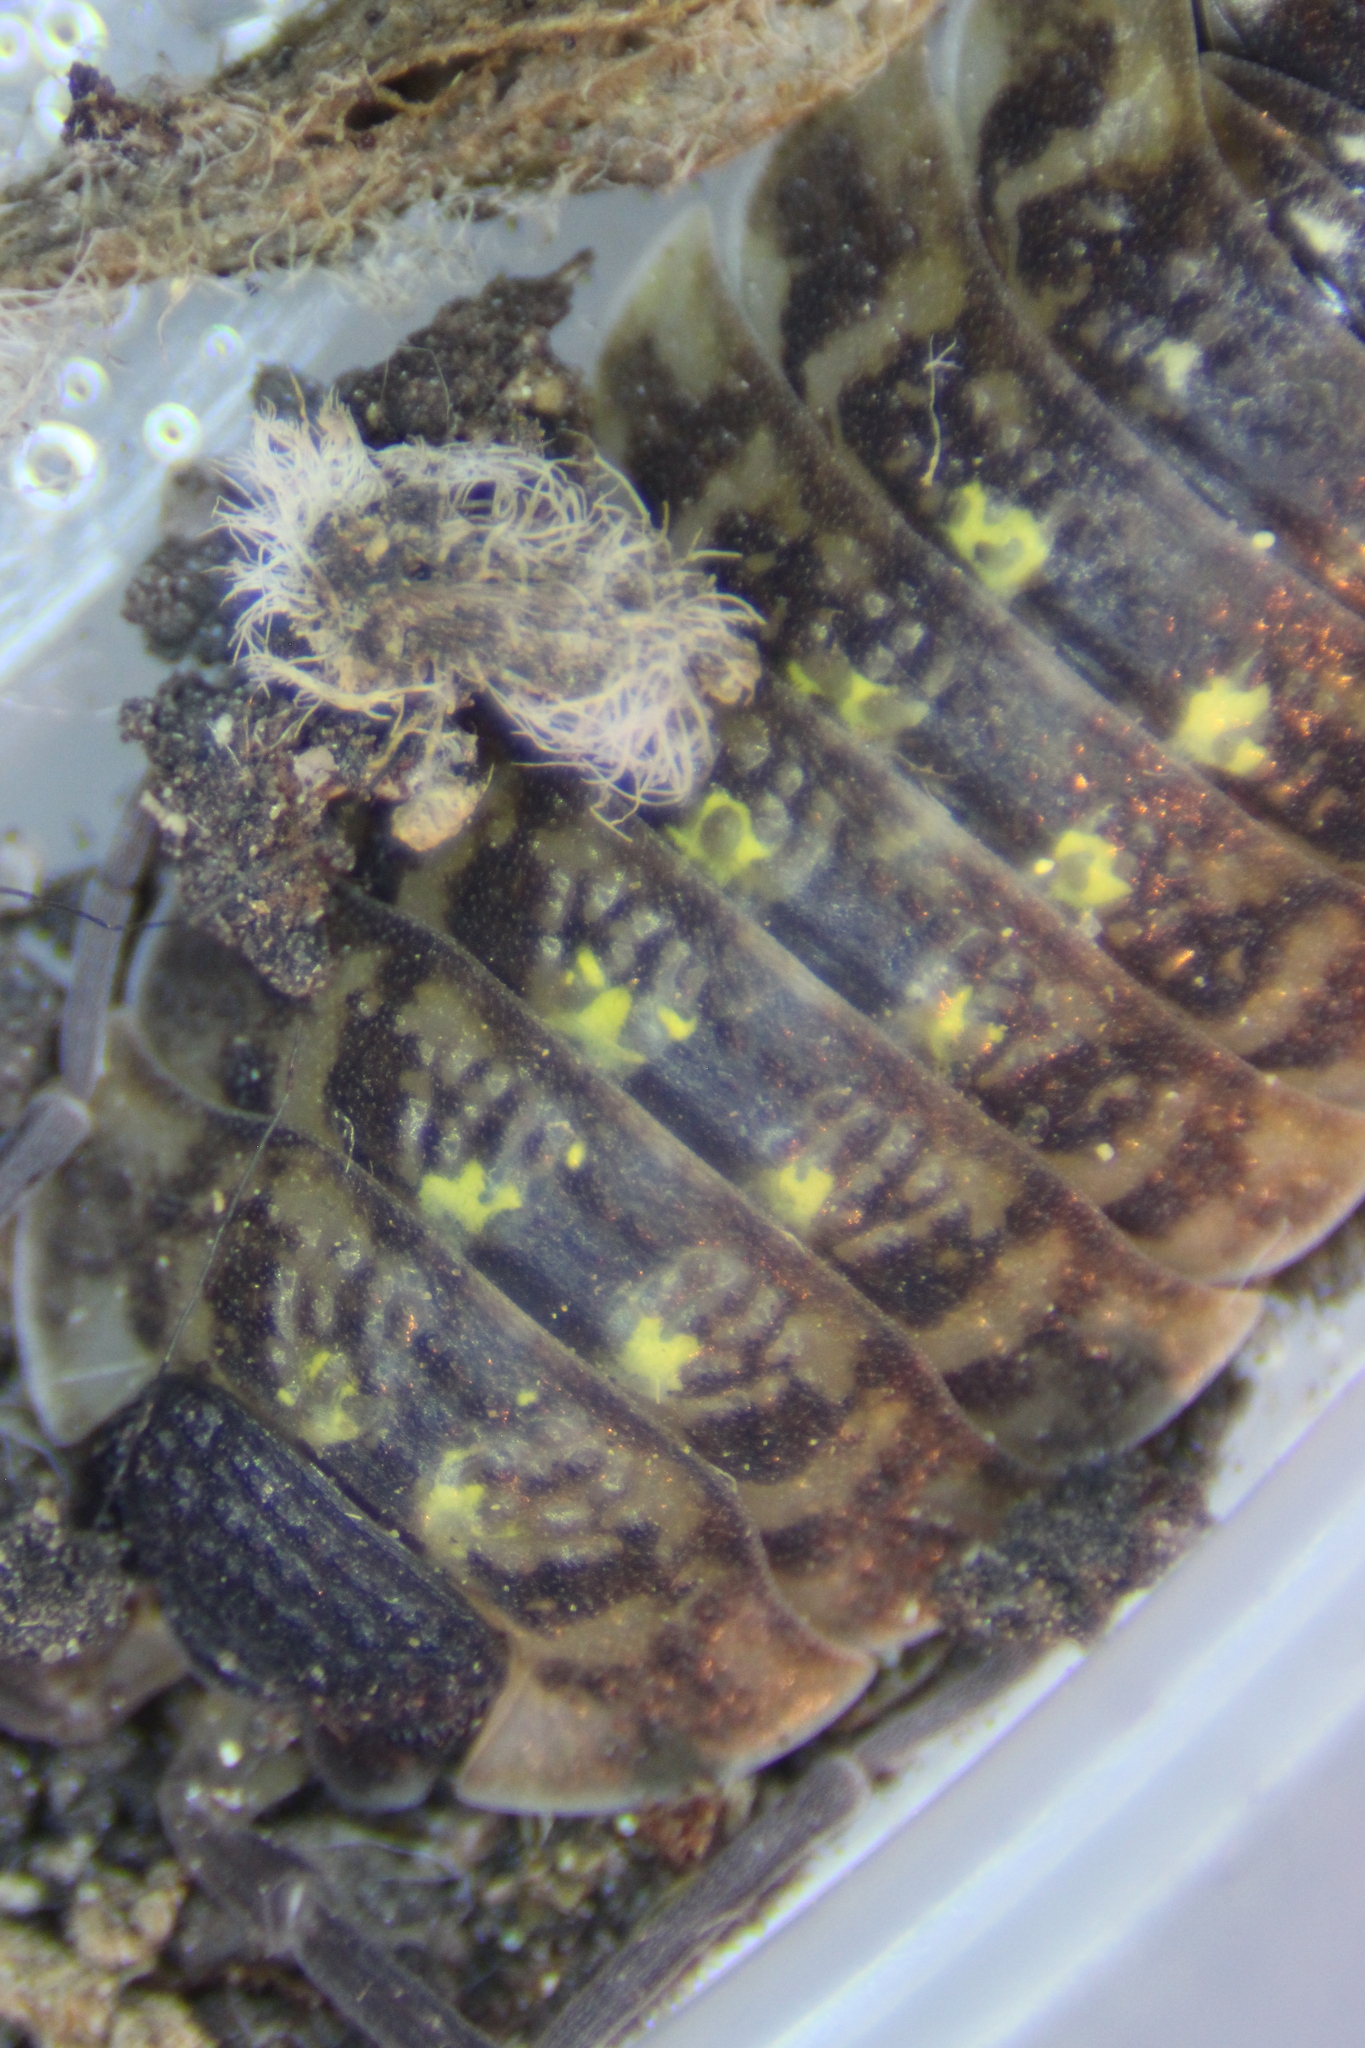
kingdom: Animalia
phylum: Arthropoda
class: Malacostraca
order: Isopoda
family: Porcellionidae
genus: Porcellio
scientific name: Porcellio spinicornis
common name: Painted woodlouse
